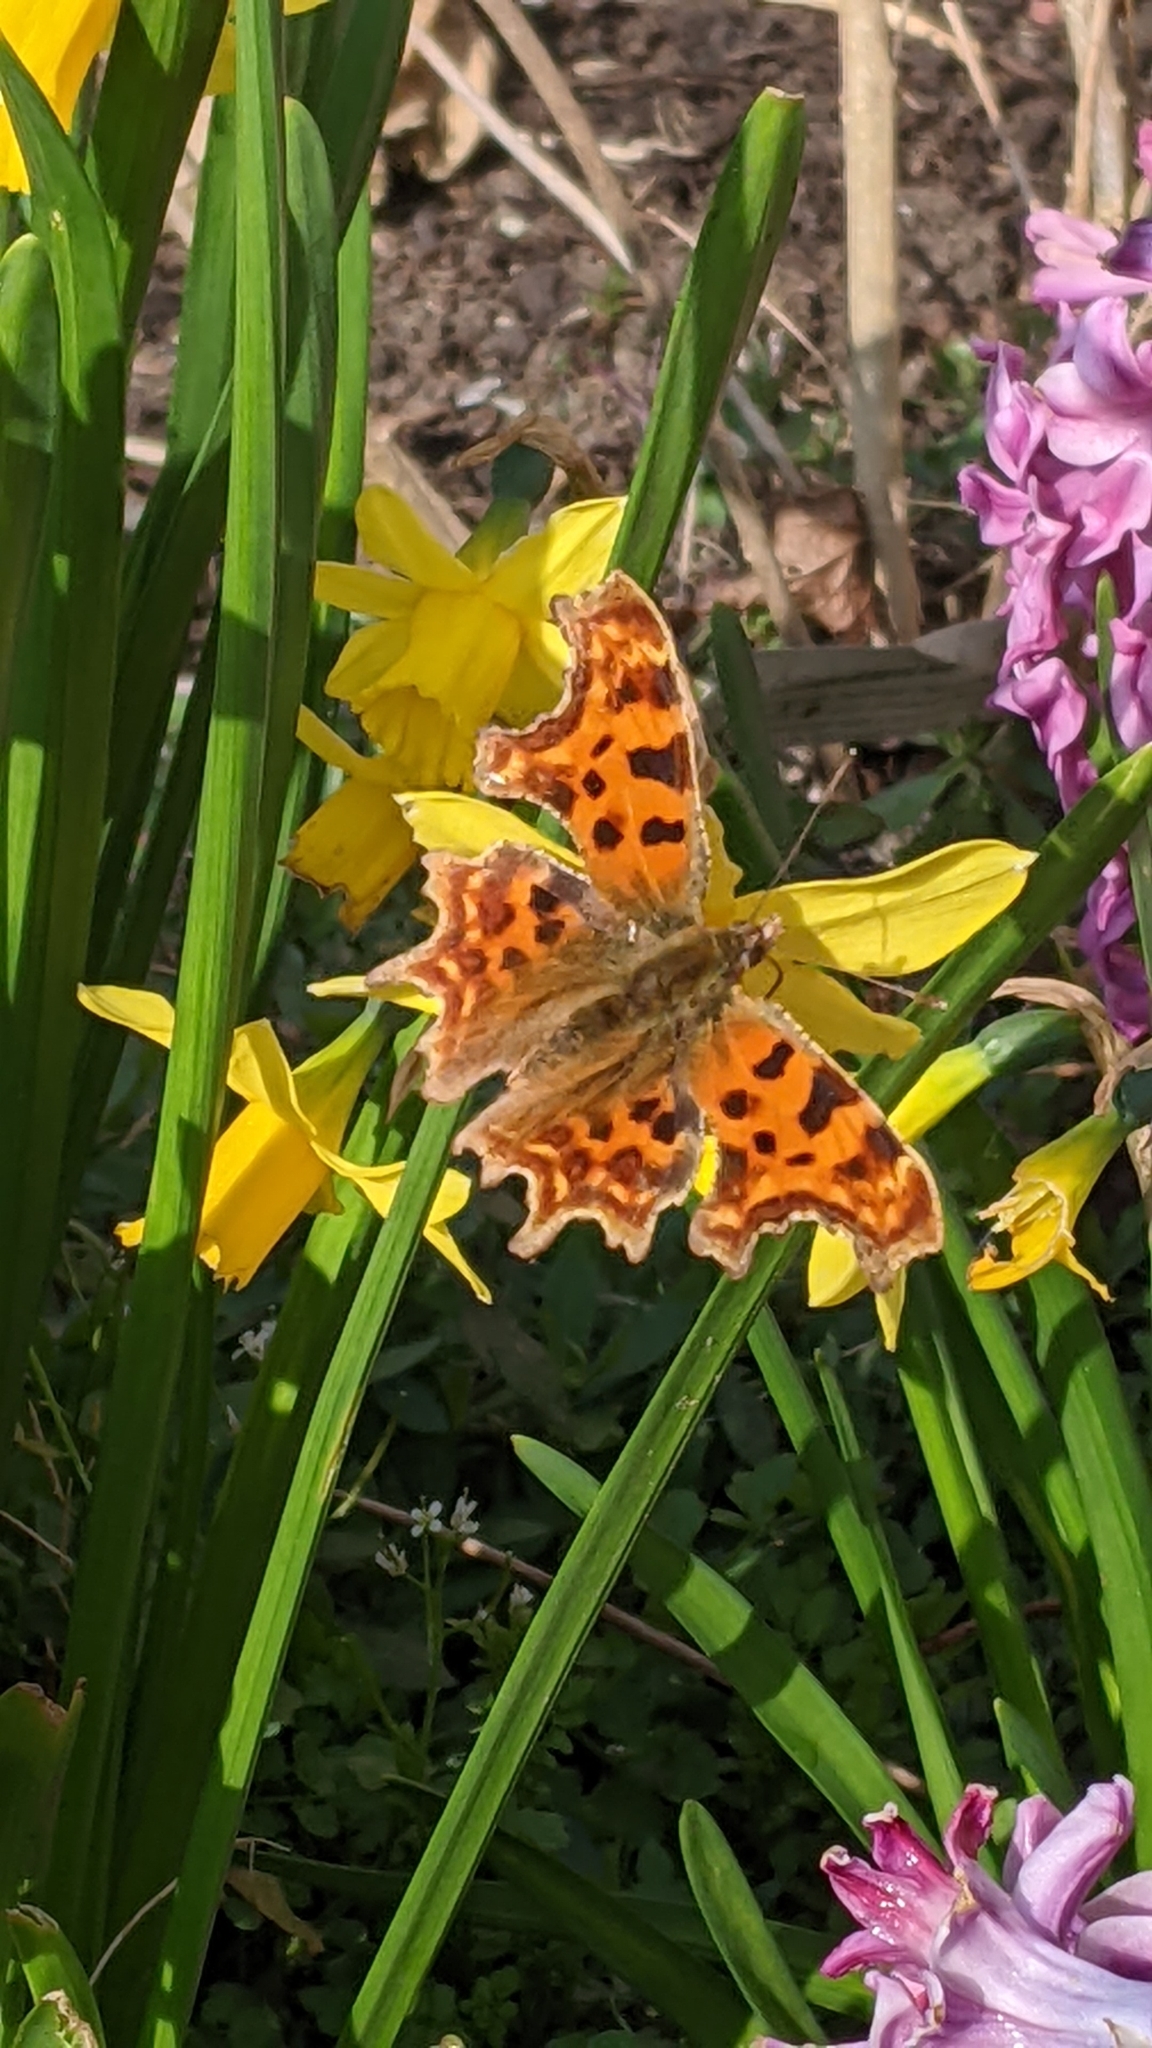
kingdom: Animalia
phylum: Arthropoda
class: Insecta
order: Lepidoptera
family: Nymphalidae
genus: Polygonia
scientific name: Polygonia c-album
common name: Comma
